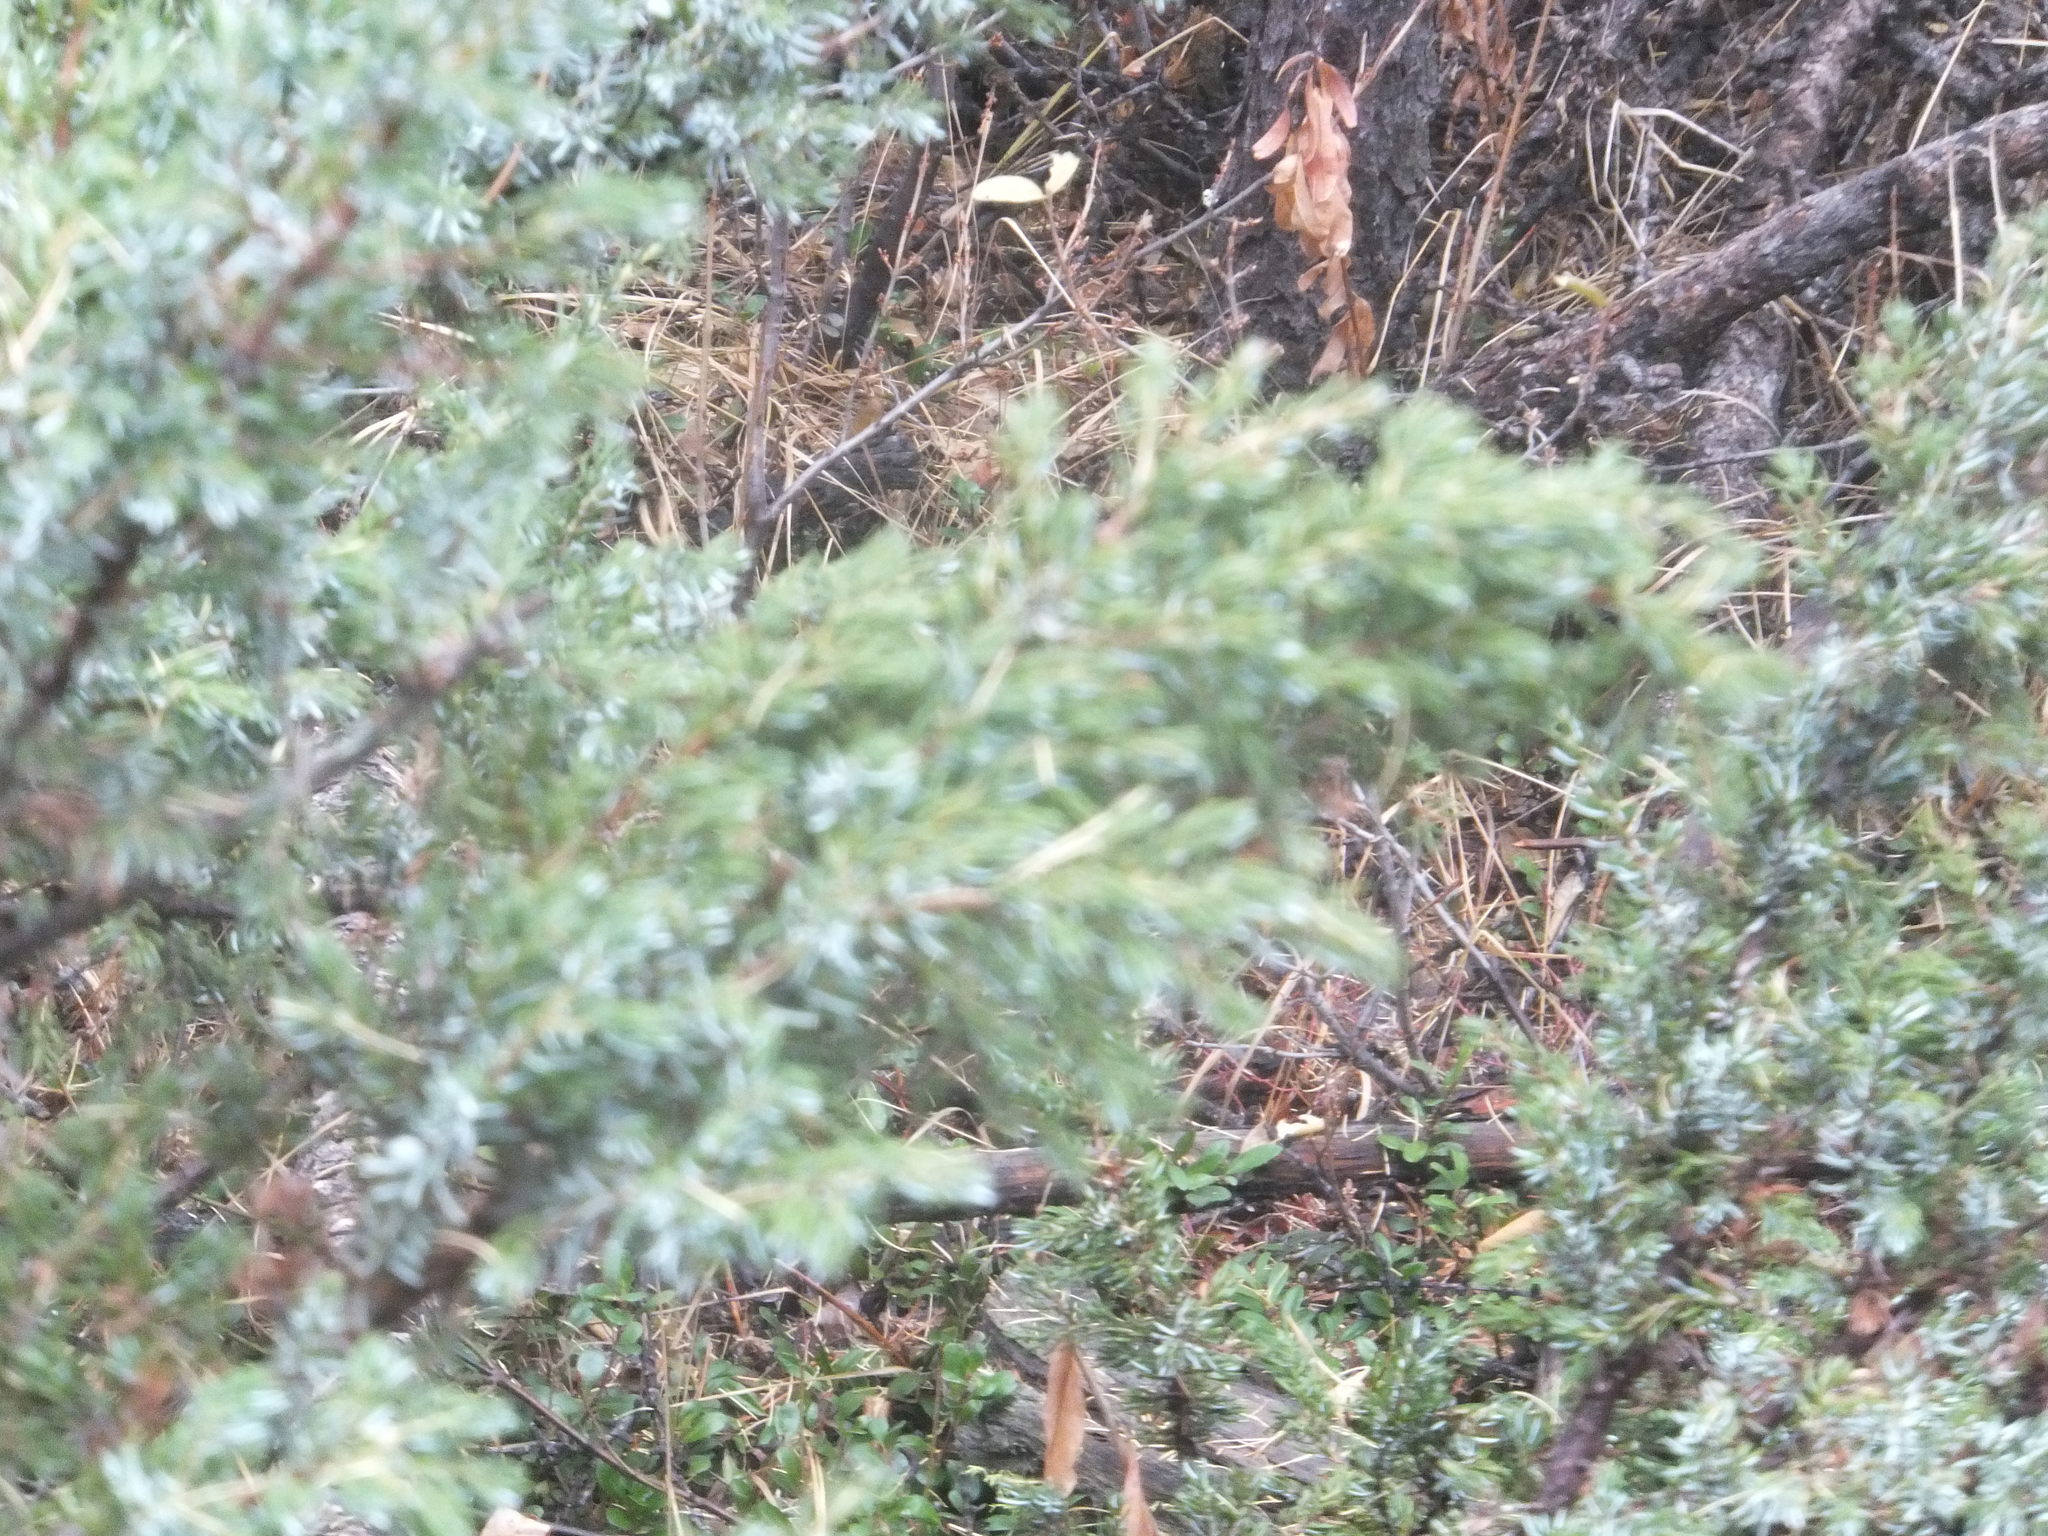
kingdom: Plantae
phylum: Tracheophyta
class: Pinopsida
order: Pinales
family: Cupressaceae
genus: Juniperus
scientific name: Juniperus communis
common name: Common juniper
